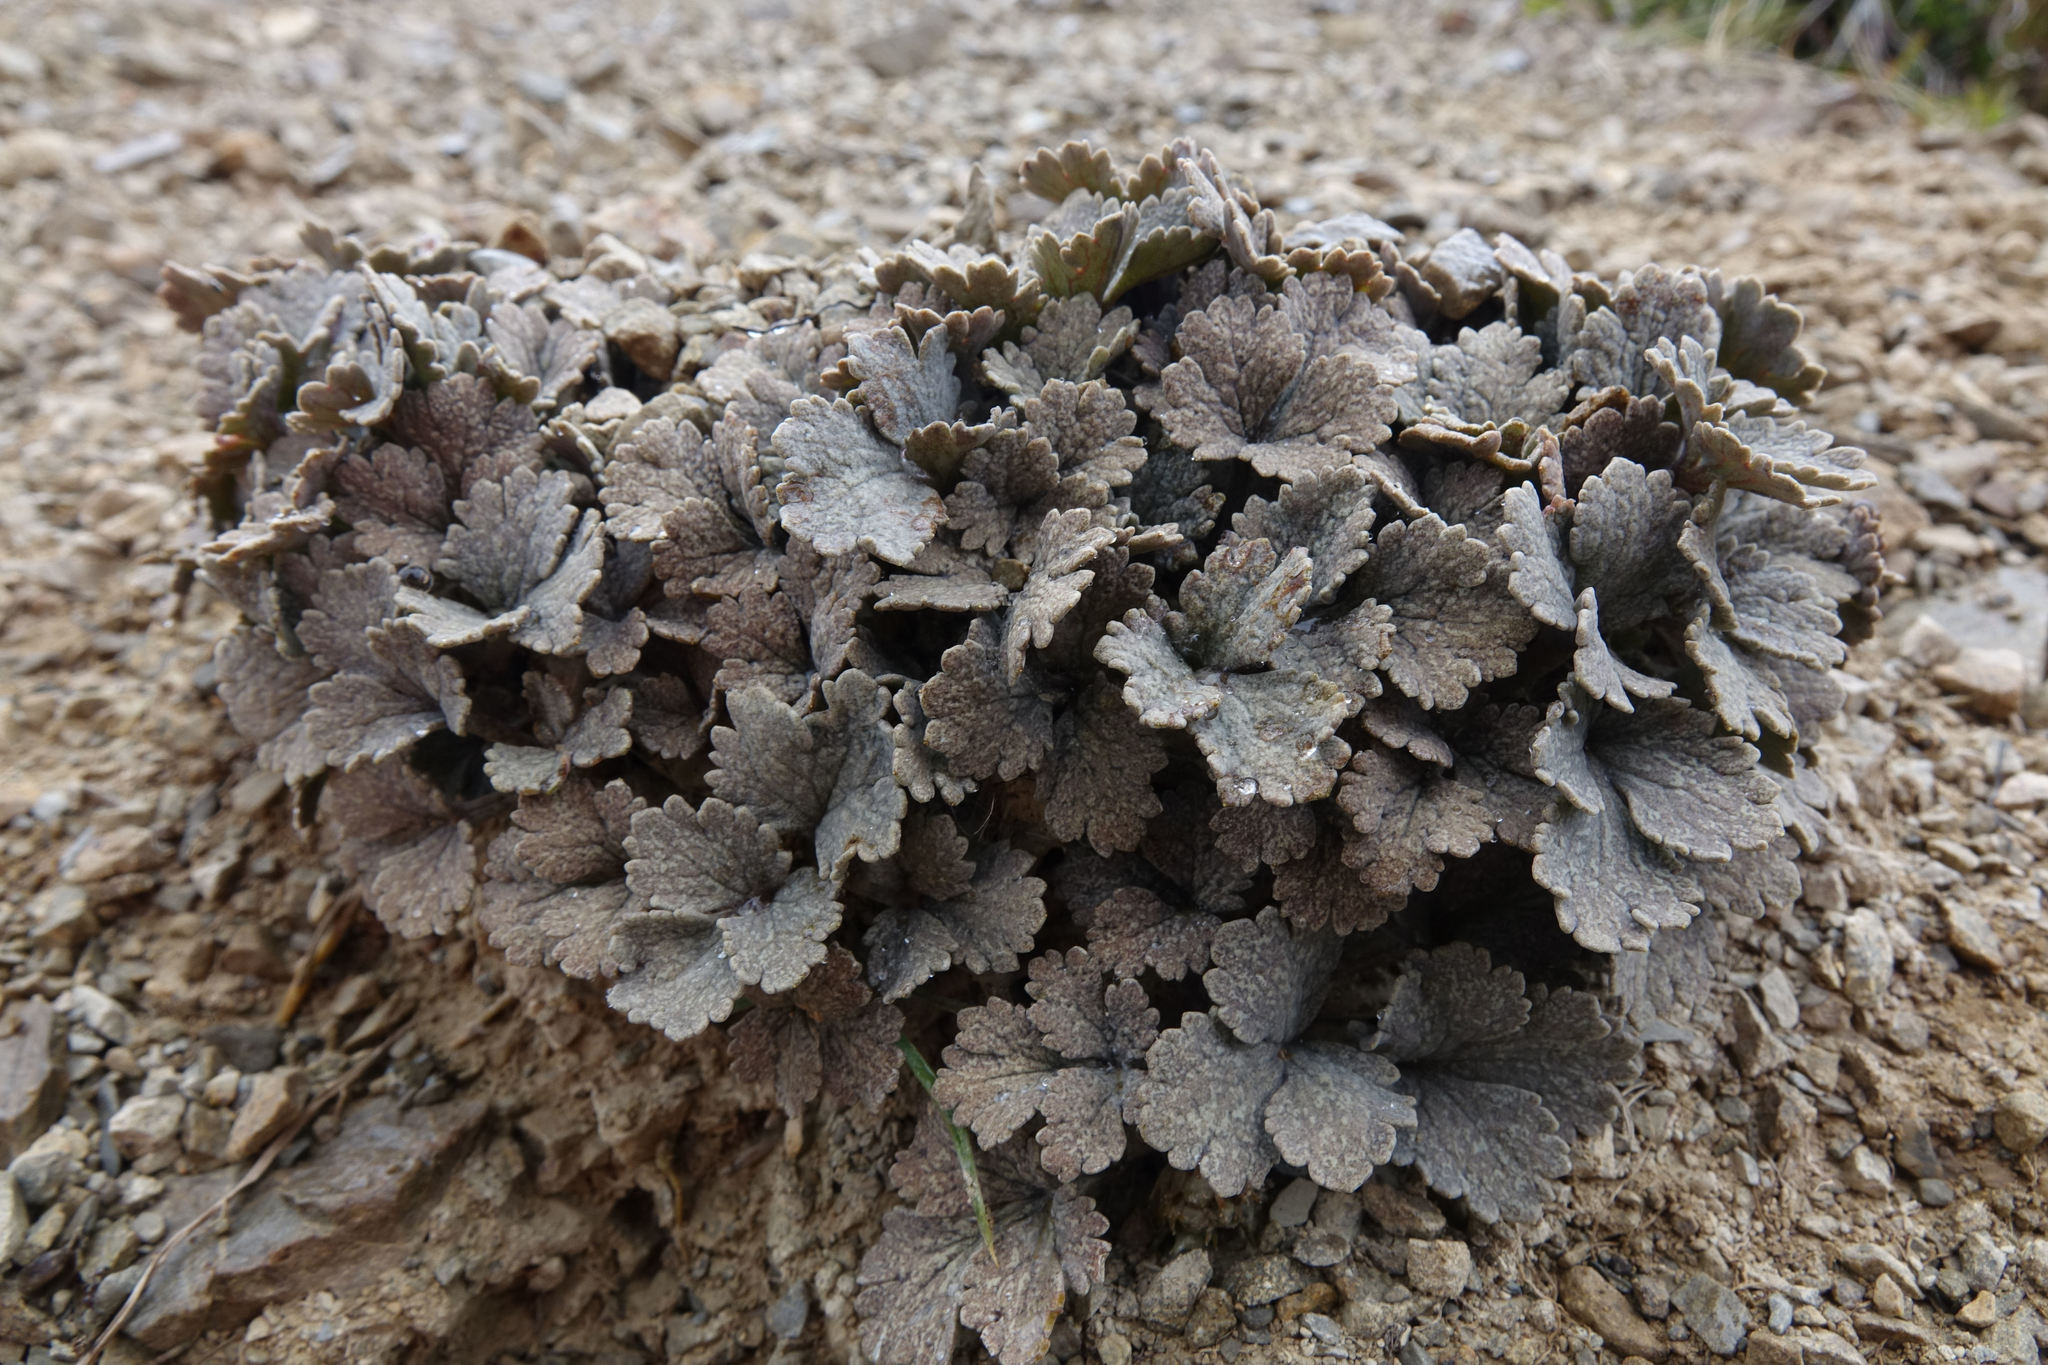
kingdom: Plantae
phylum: Tracheophyta
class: Magnoliopsida
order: Ranunculales
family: Ranunculaceae
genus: Ranunculus
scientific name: Ranunculus crithmifolius
